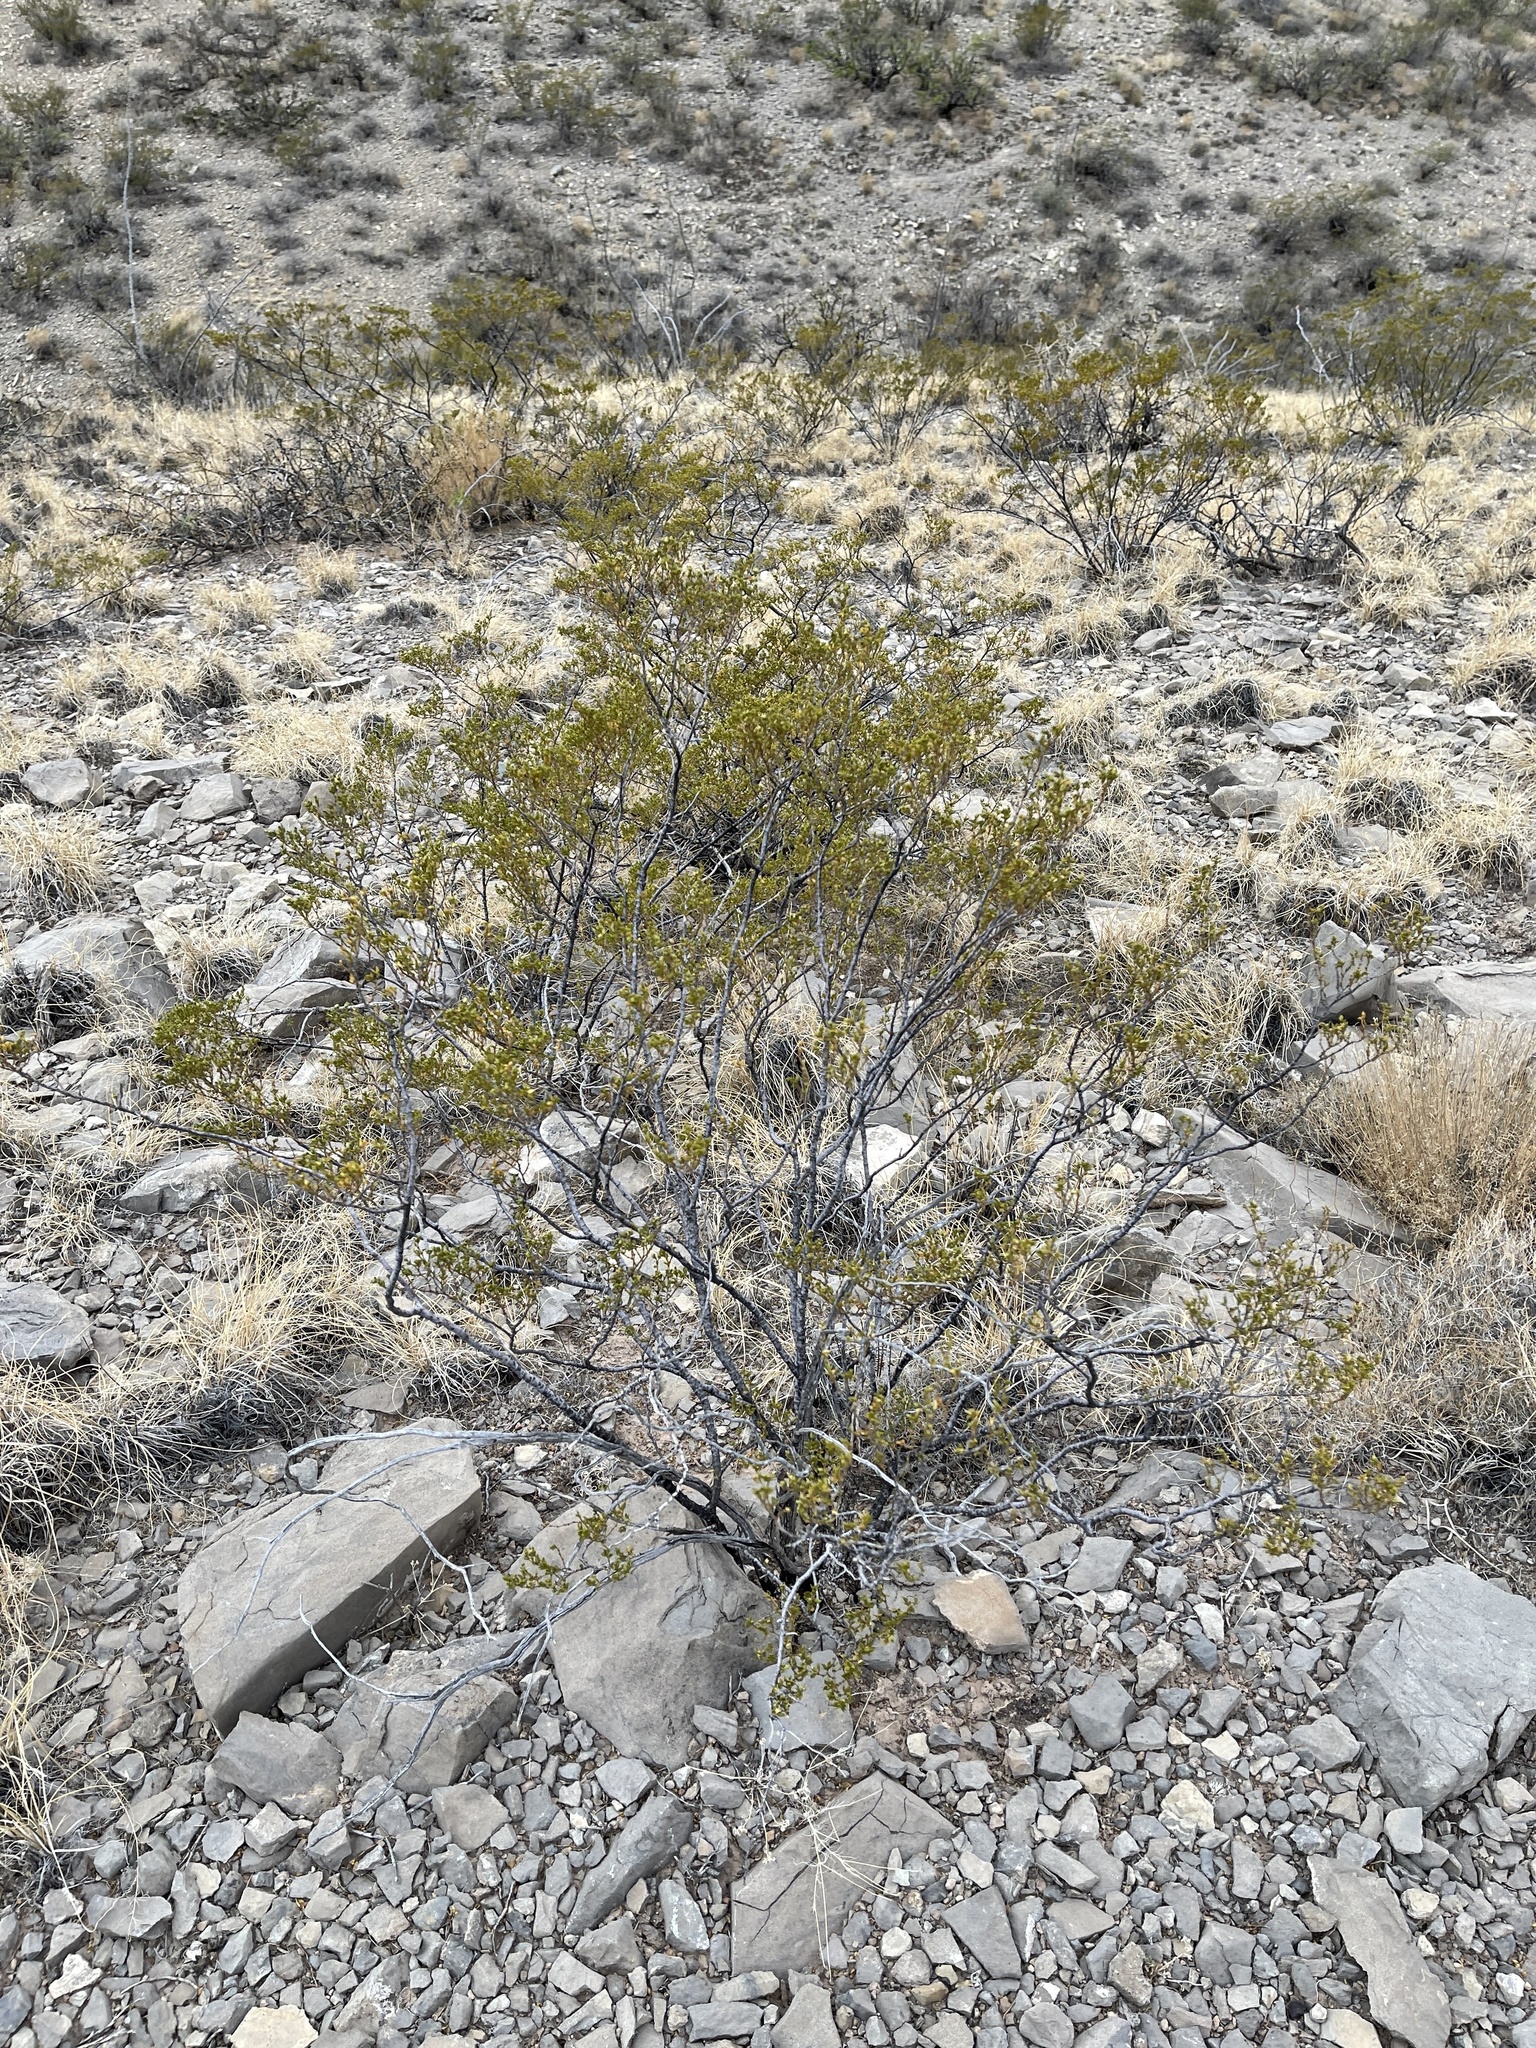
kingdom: Plantae
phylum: Tracheophyta
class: Magnoliopsida
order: Zygophyllales
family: Zygophyllaceae
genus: Larrea
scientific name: Larrea tridentata
